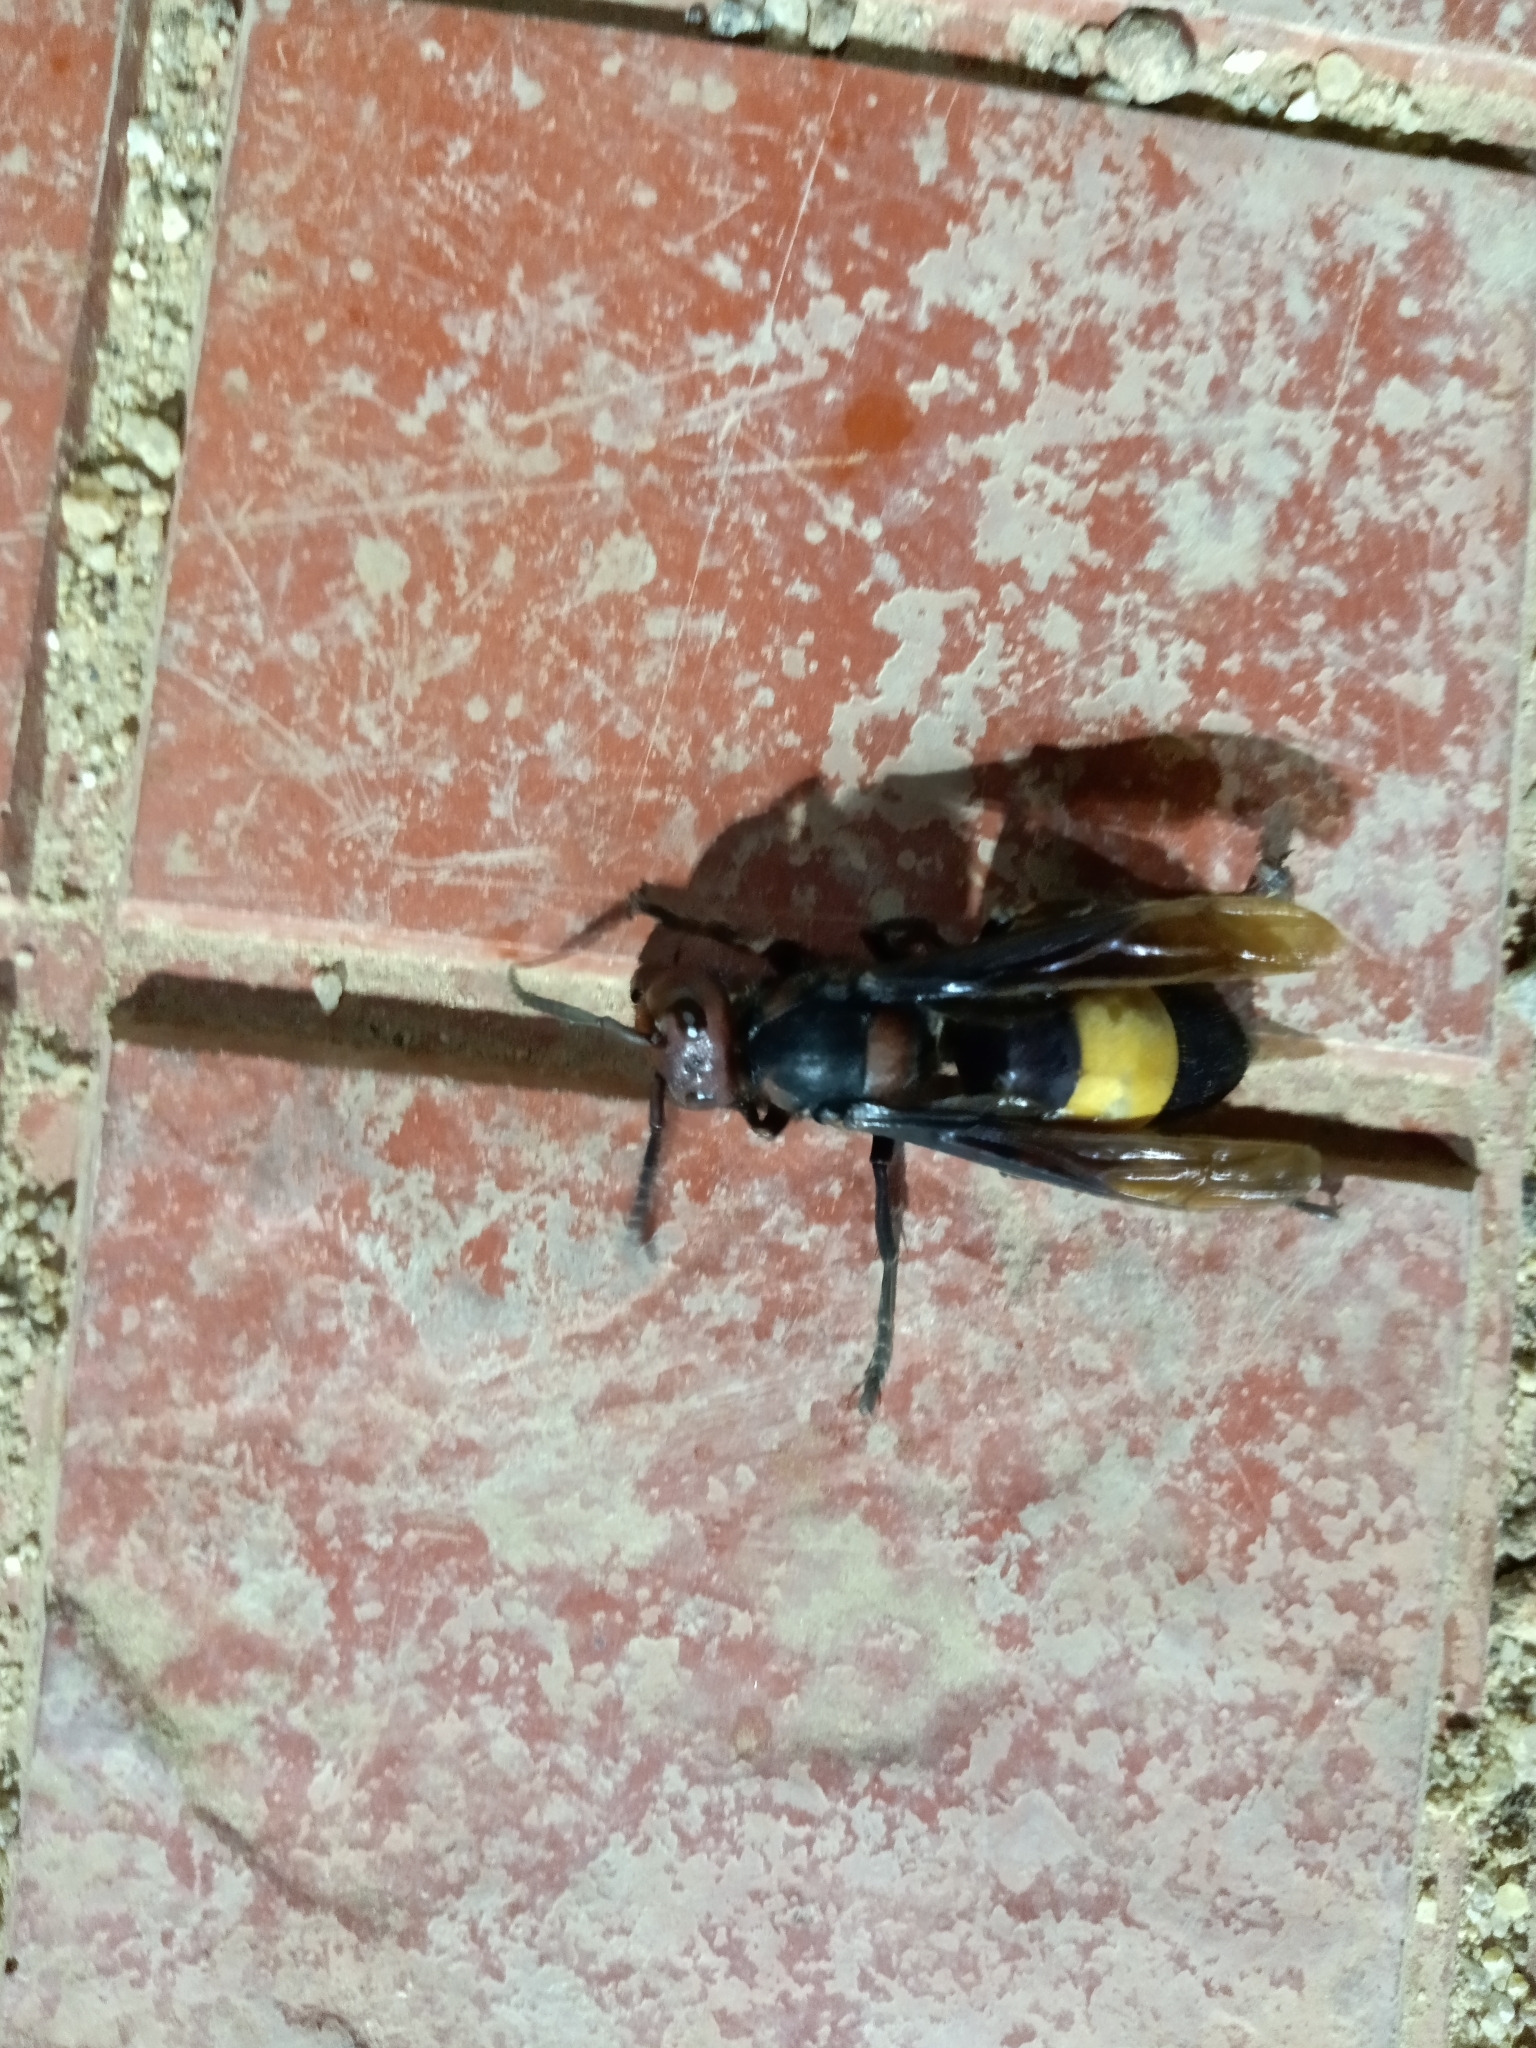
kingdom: Animalia
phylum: Arthropoda
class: Insecta
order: Hymenoptera
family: Vespidae
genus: Vespa
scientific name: Vespa tropica
